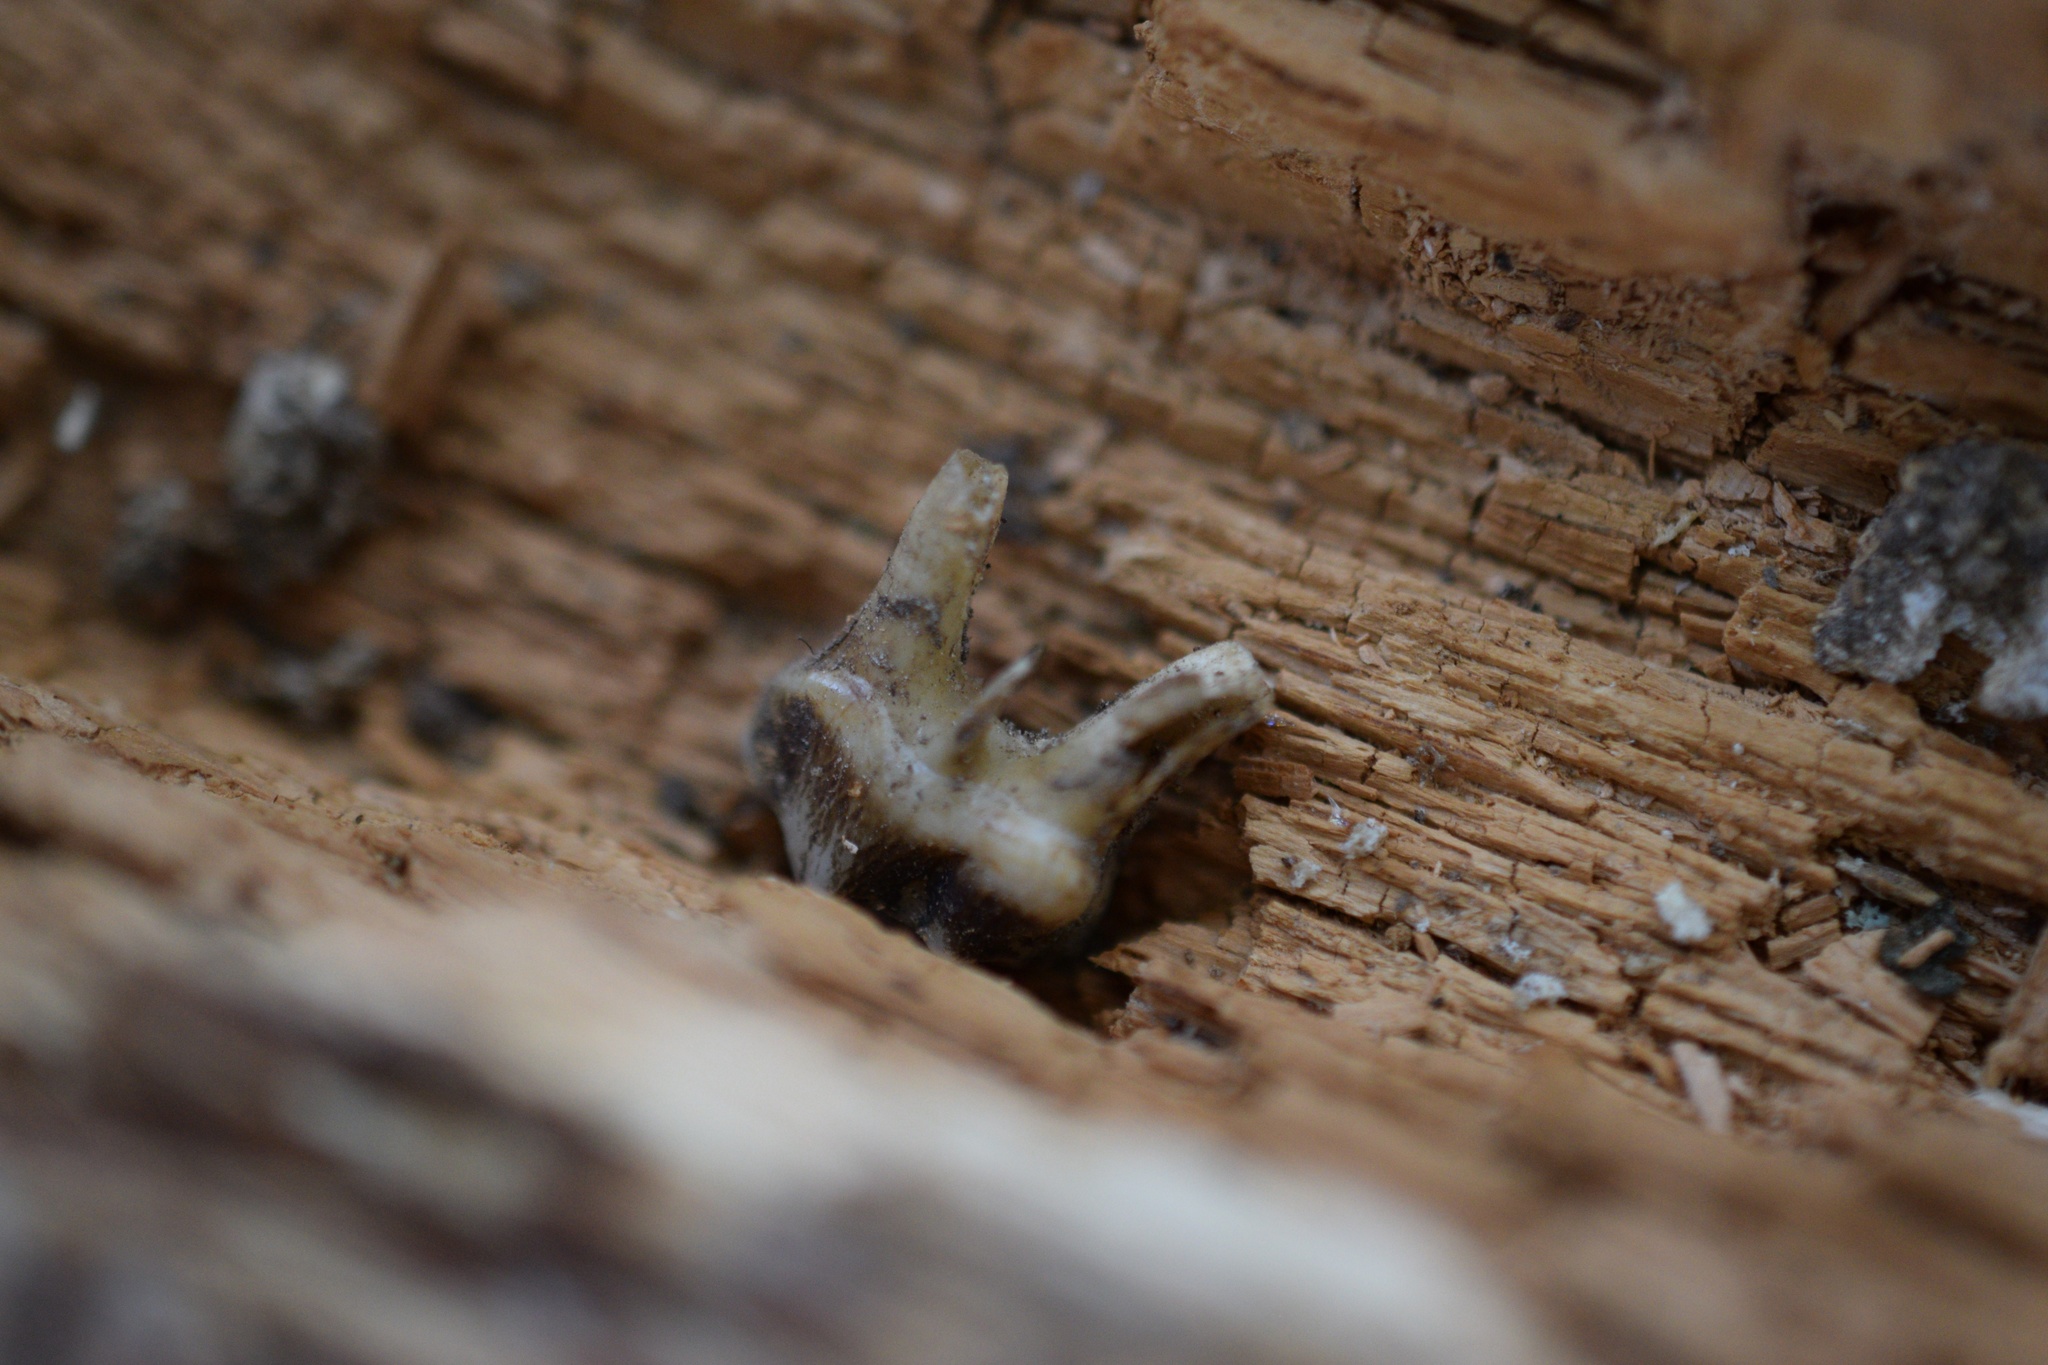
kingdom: Animalia
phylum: Chordata
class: Mammalia
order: Artiodactyla
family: Cervidae
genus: Odocoileus
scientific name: Odocoileus virginianus
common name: White-tailed deer
